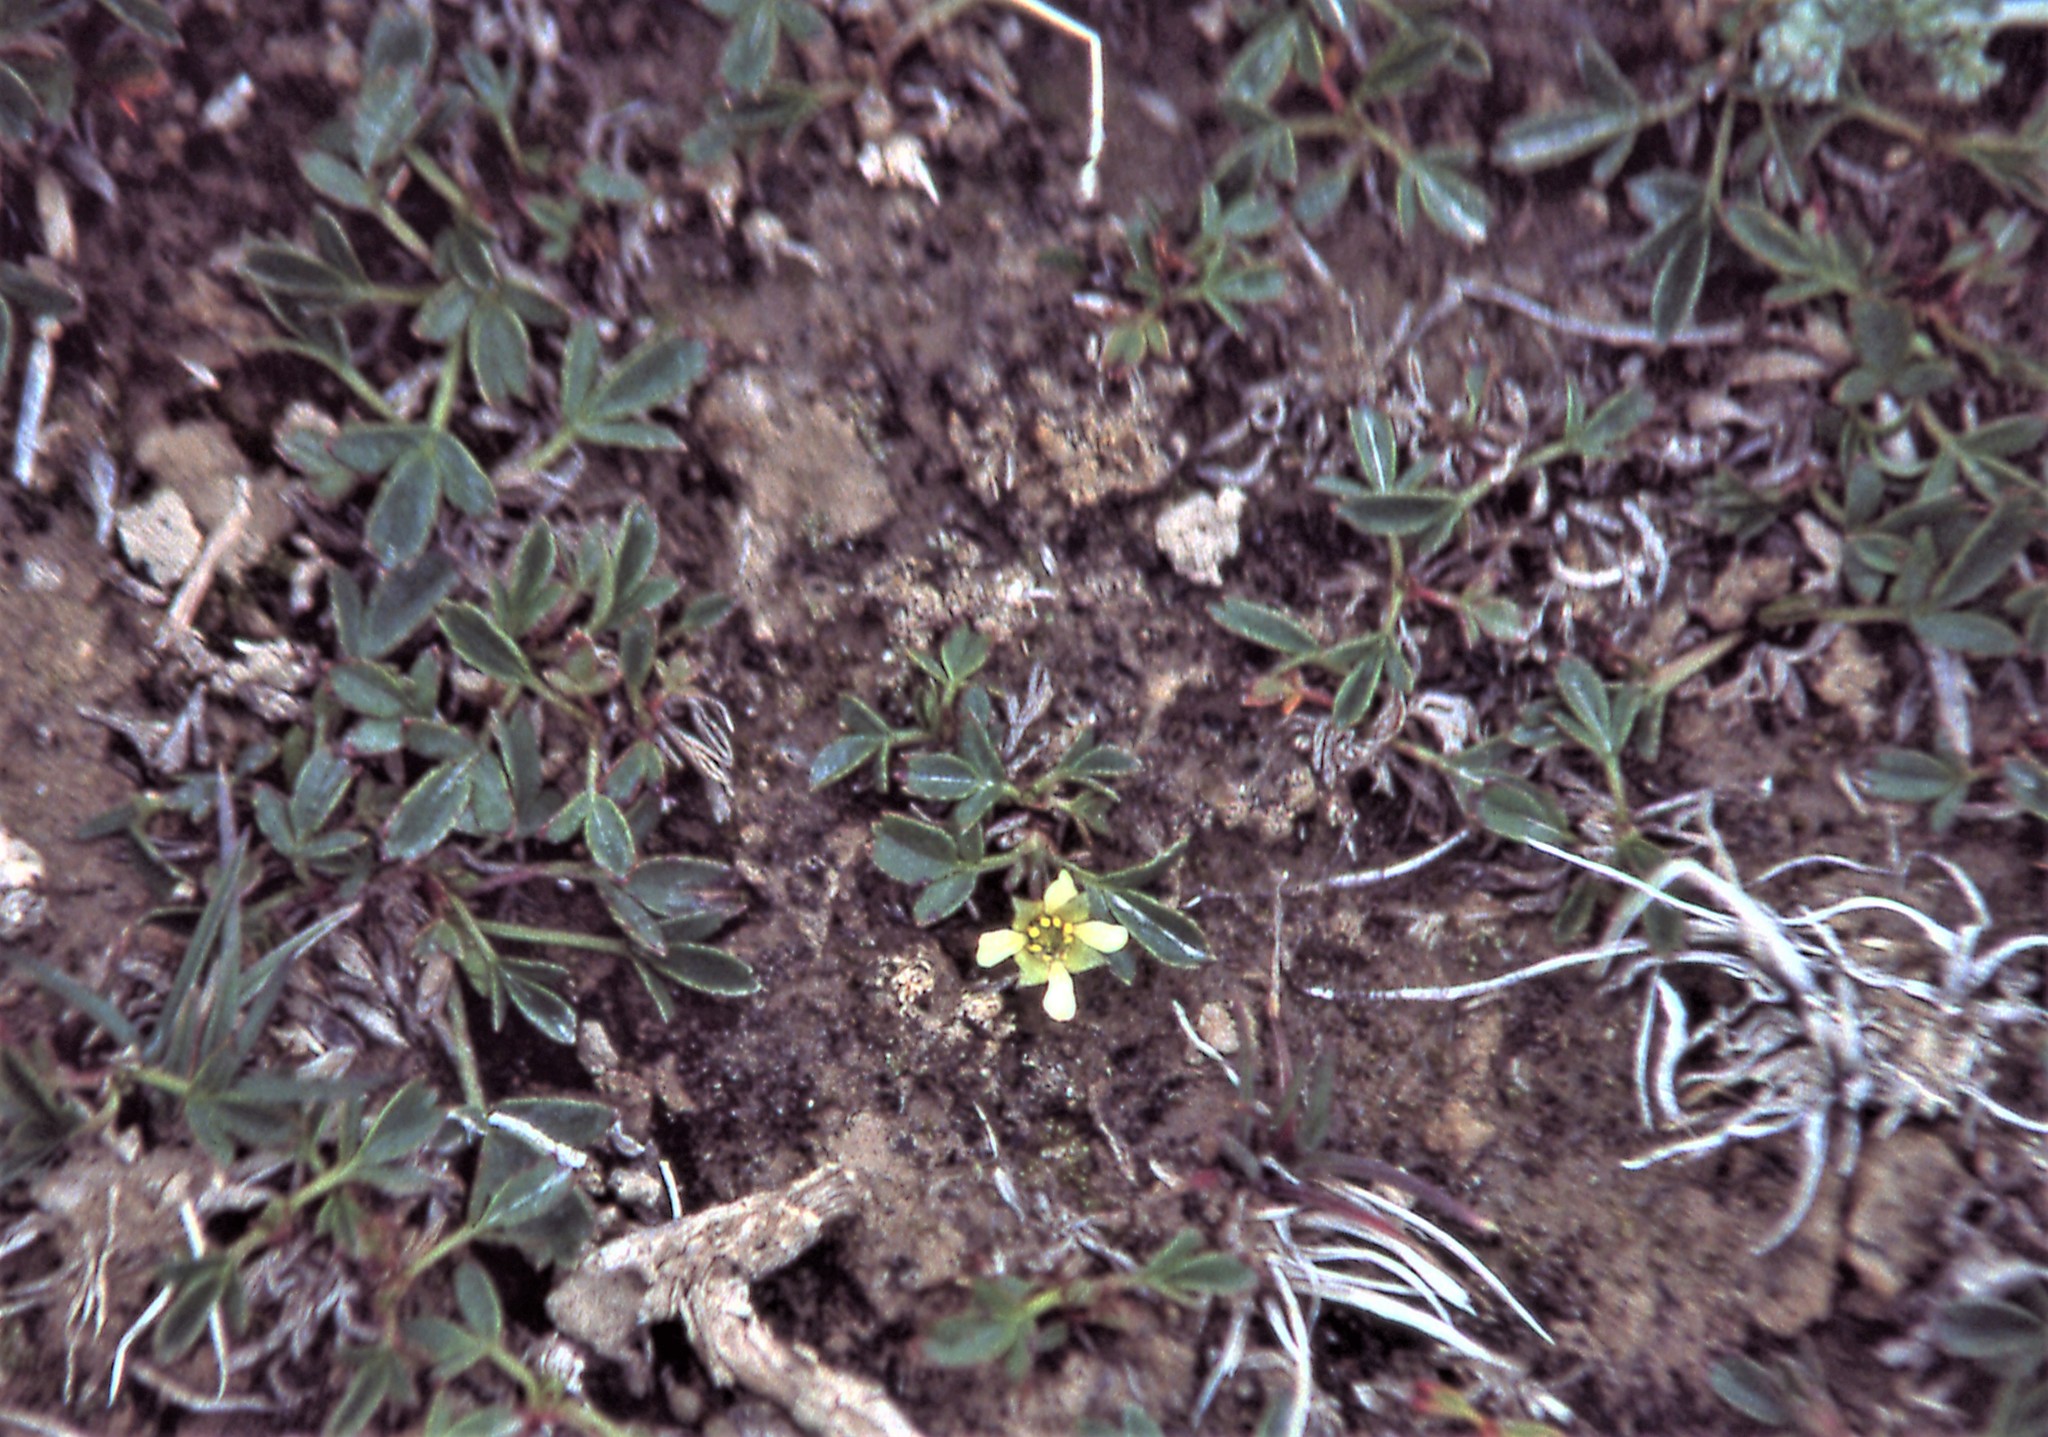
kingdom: Plantae
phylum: Tracheophyta
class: Magnoliopsida
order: Rosales
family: Rosaceae
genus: Sibbaldianthe
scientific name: Sibbaldianthe adpressa
